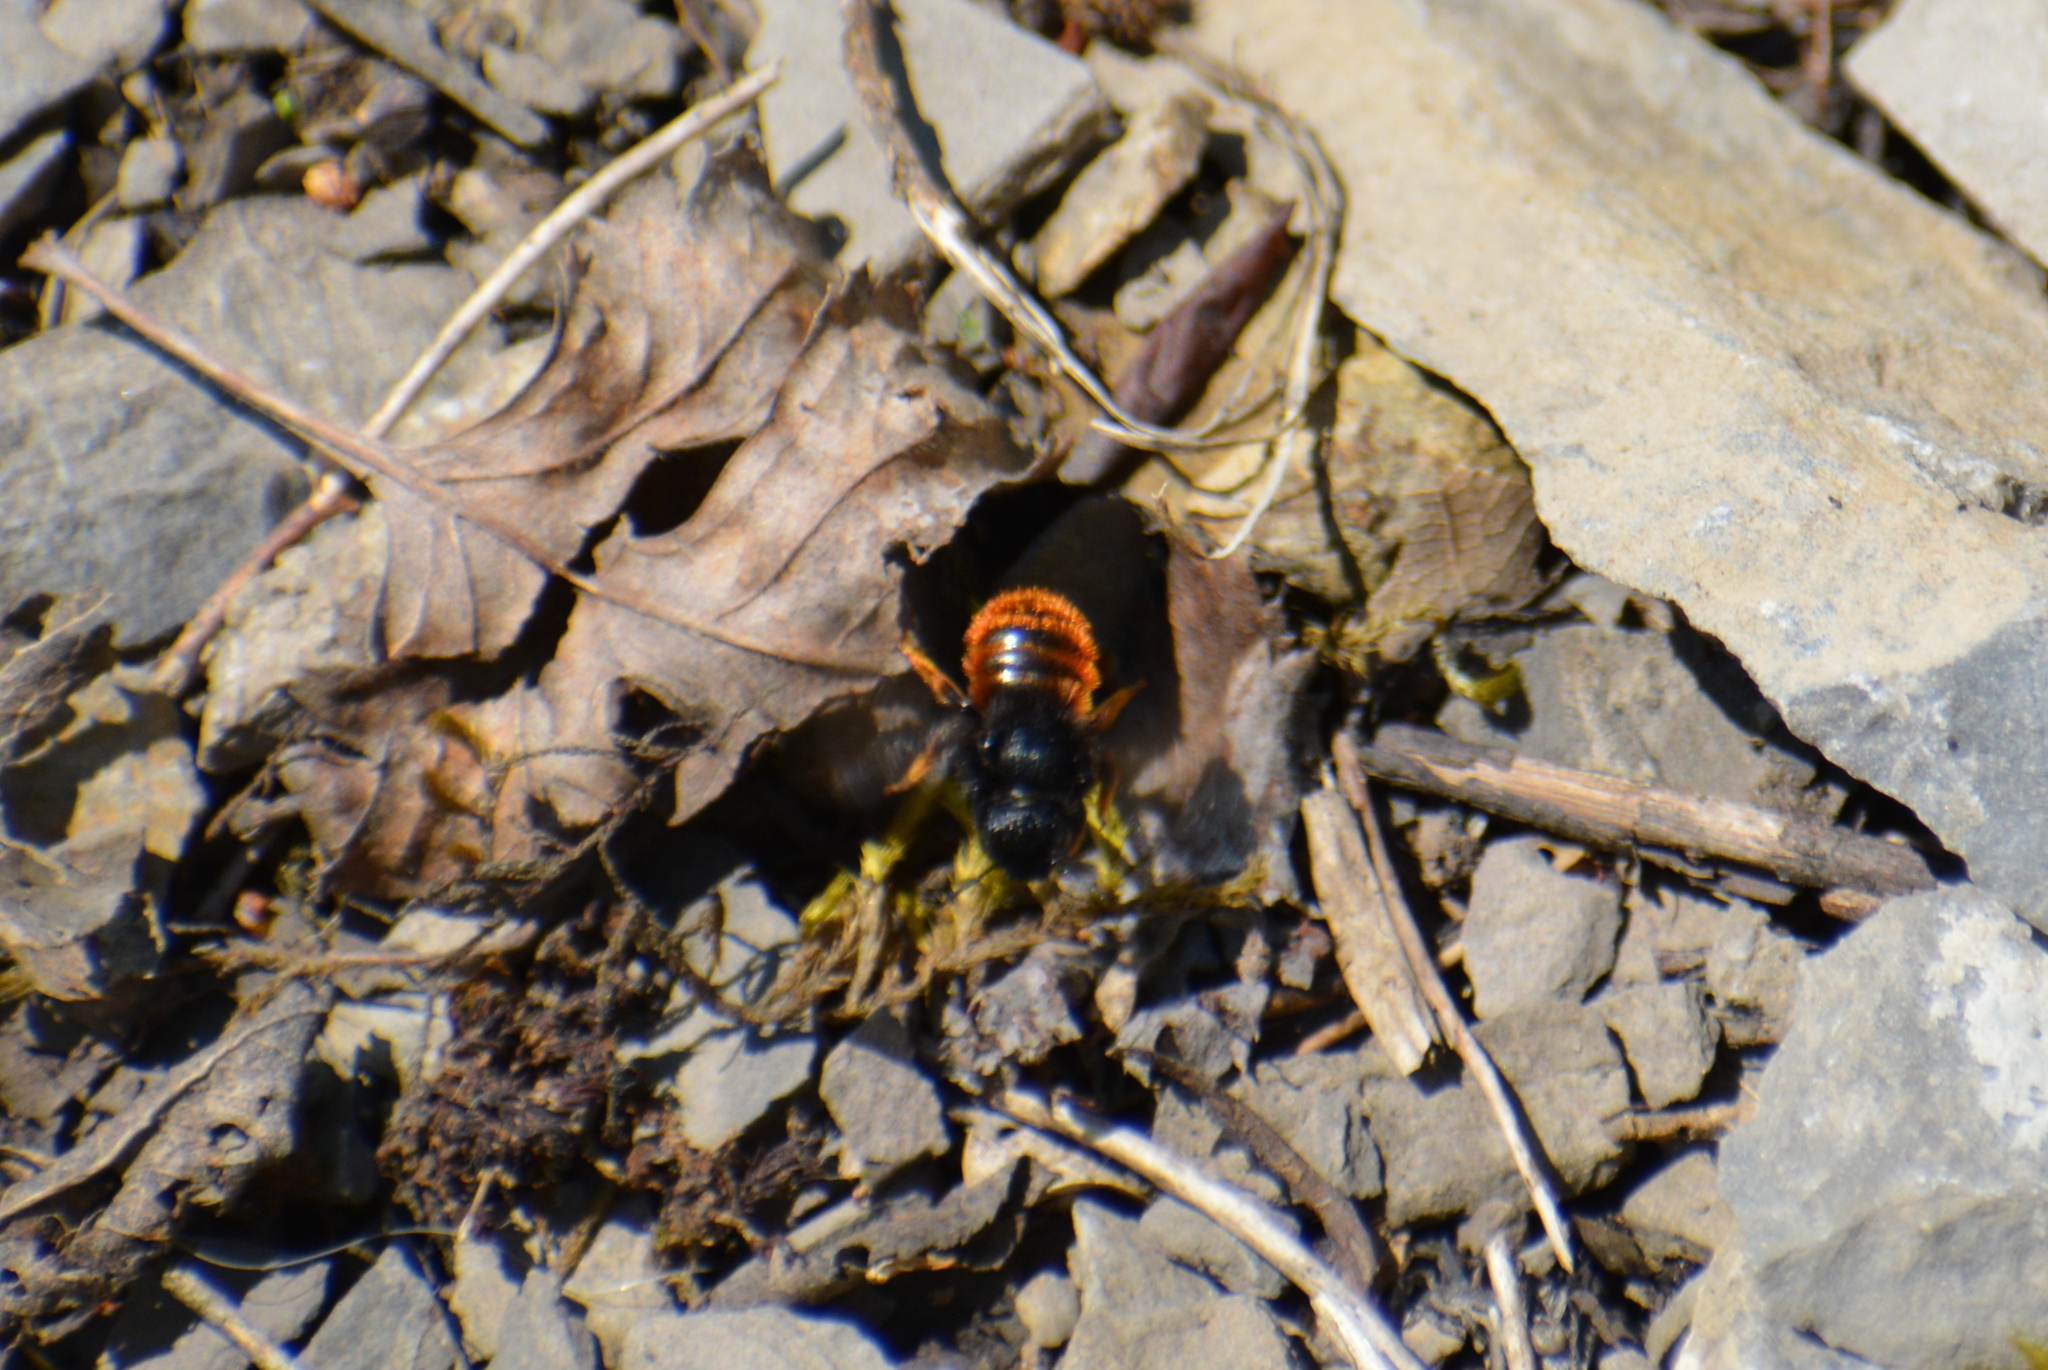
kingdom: Animalia
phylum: Arthropoda
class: Insecta
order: Hymenoptera
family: Megachilidae
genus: Osmia
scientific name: Osmia bicolor
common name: Red-tailed mason bee
